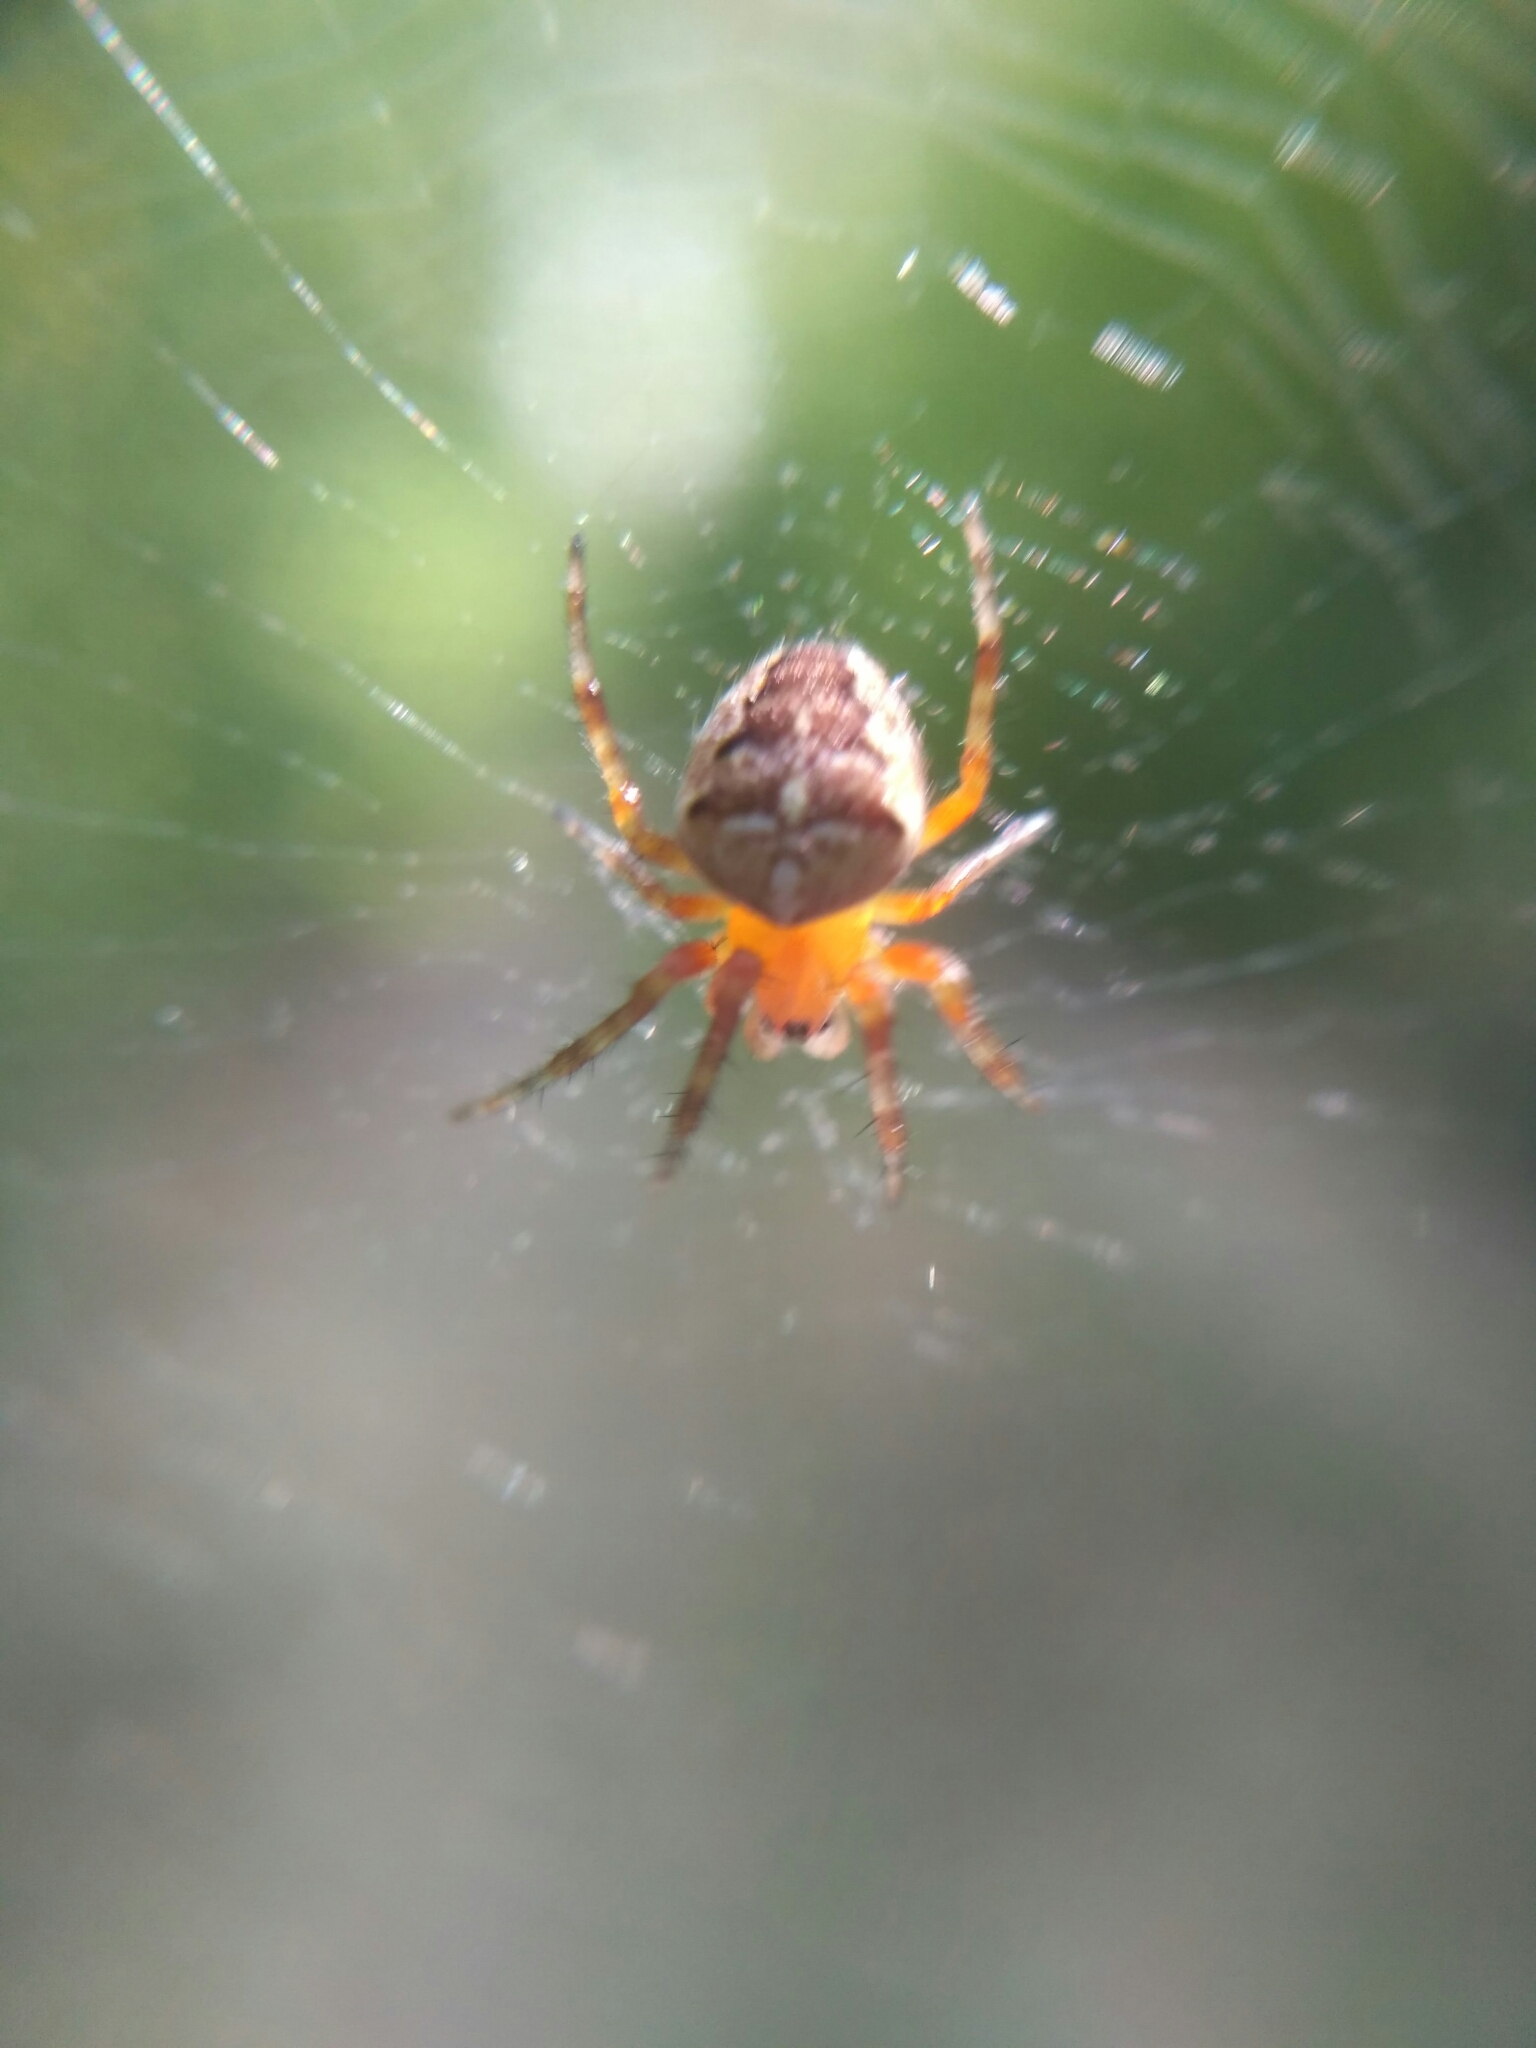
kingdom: Animalia
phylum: Arthropoda
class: Arachnida
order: Araneae
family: Araneidae
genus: Araneus
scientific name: Araneus diadematus
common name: Cross orbweaver
